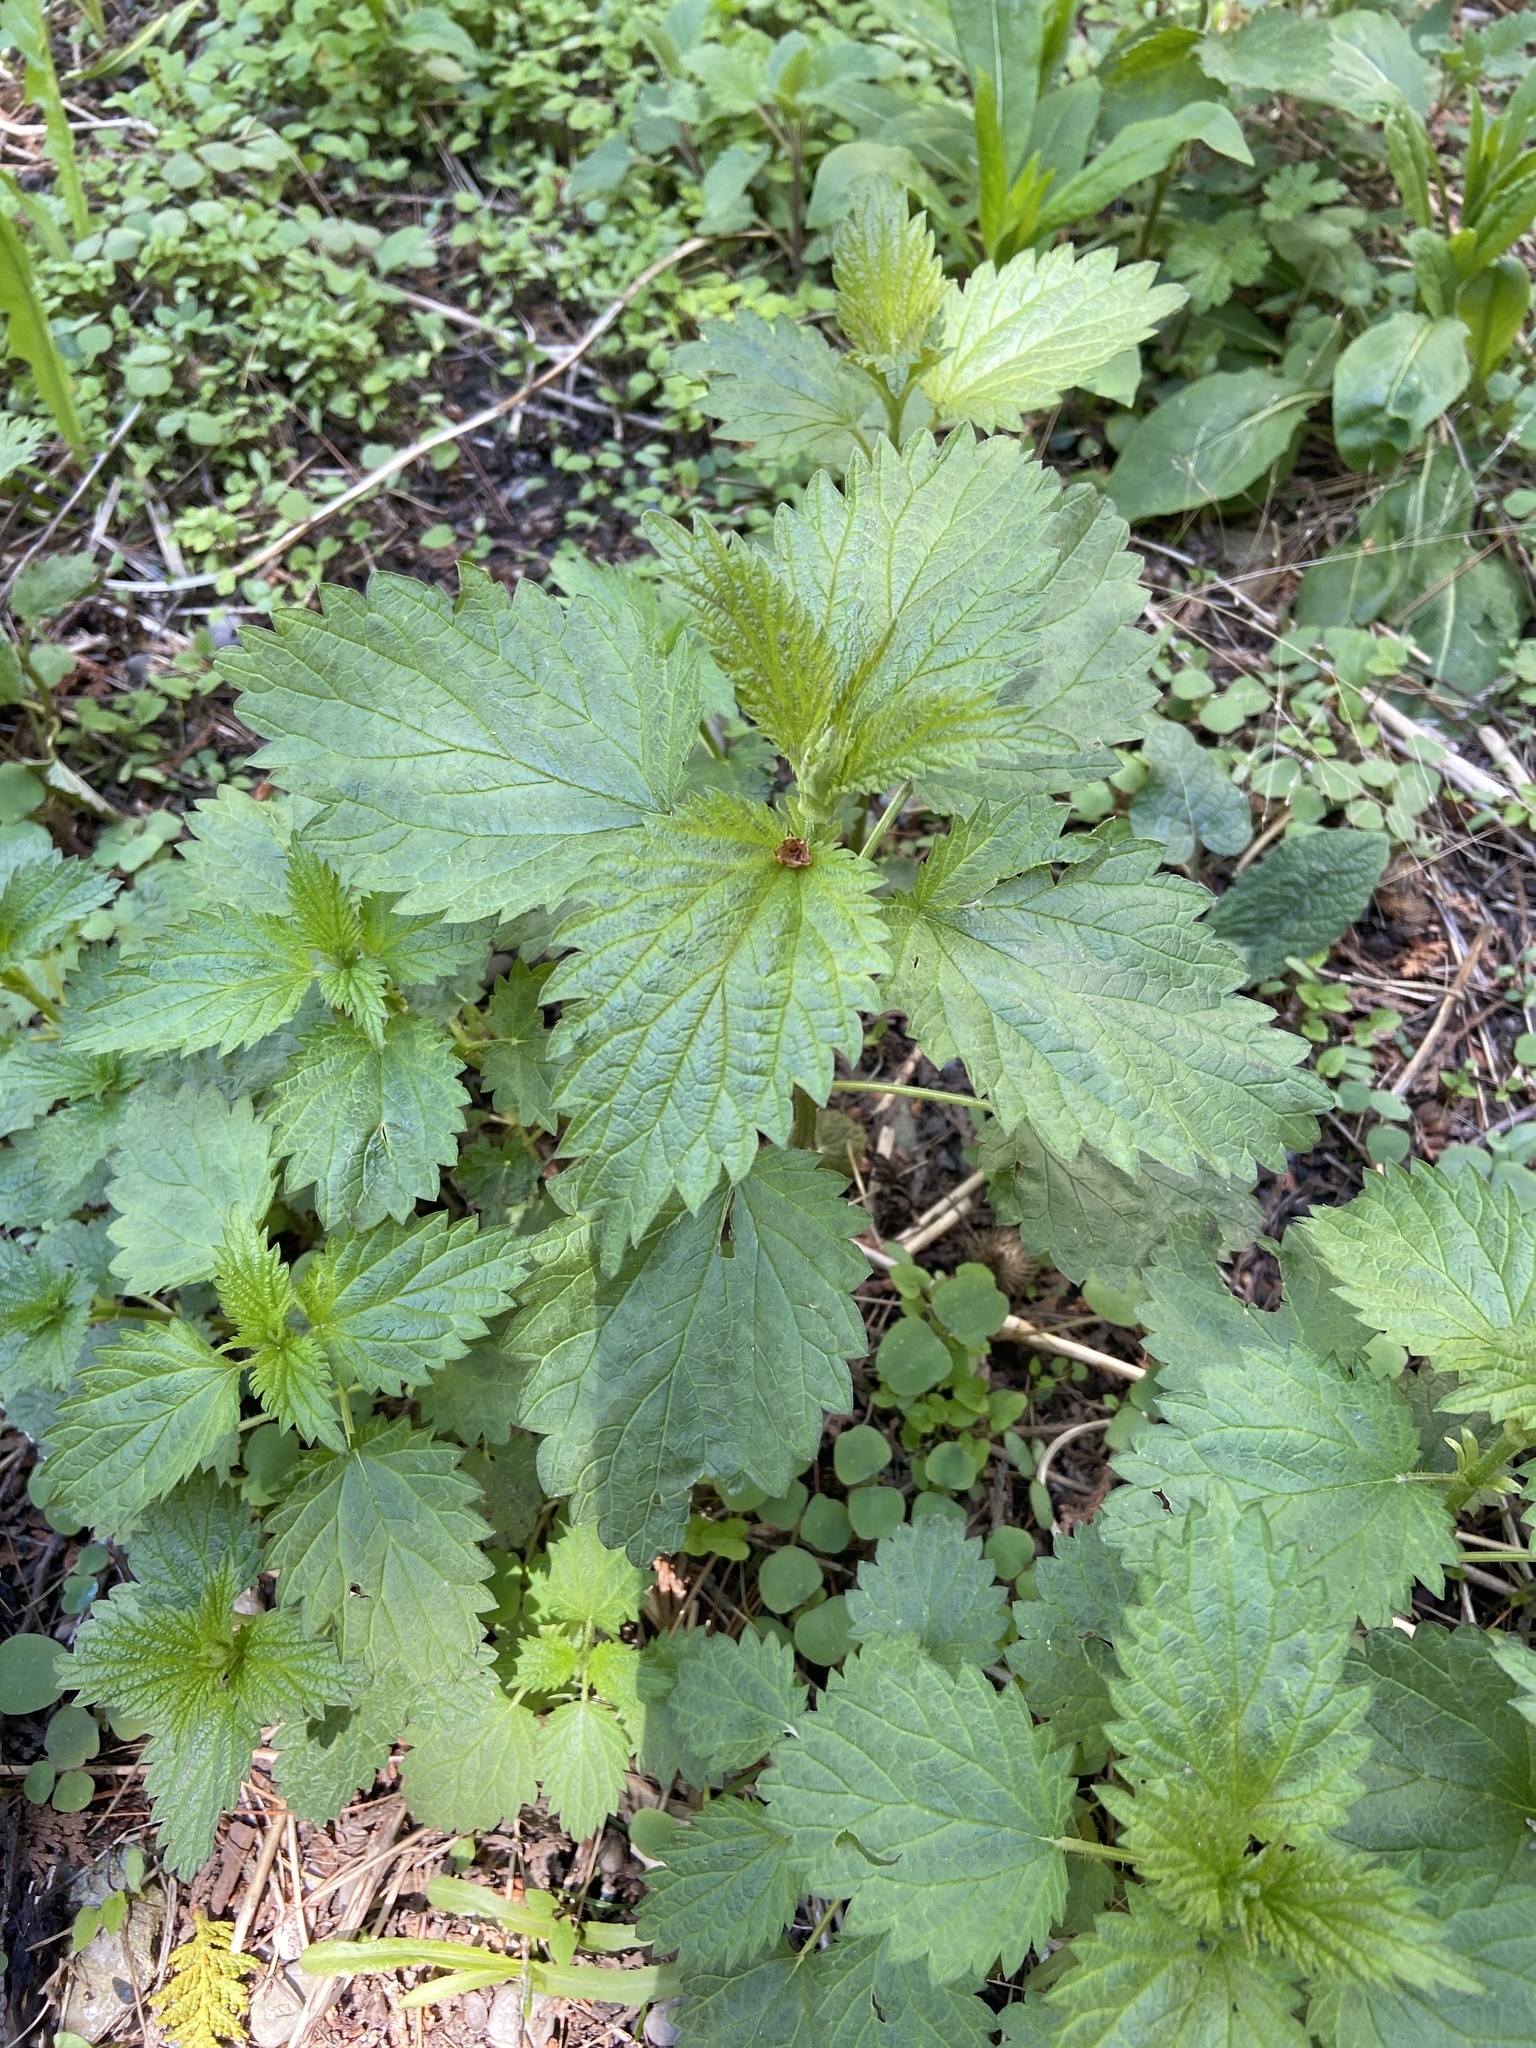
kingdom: Plantae
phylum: Tracheophyta
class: Magnoliopsida
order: Rosales
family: Urticaceae
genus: Urtica
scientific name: Urtica dioica
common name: Common nettle
